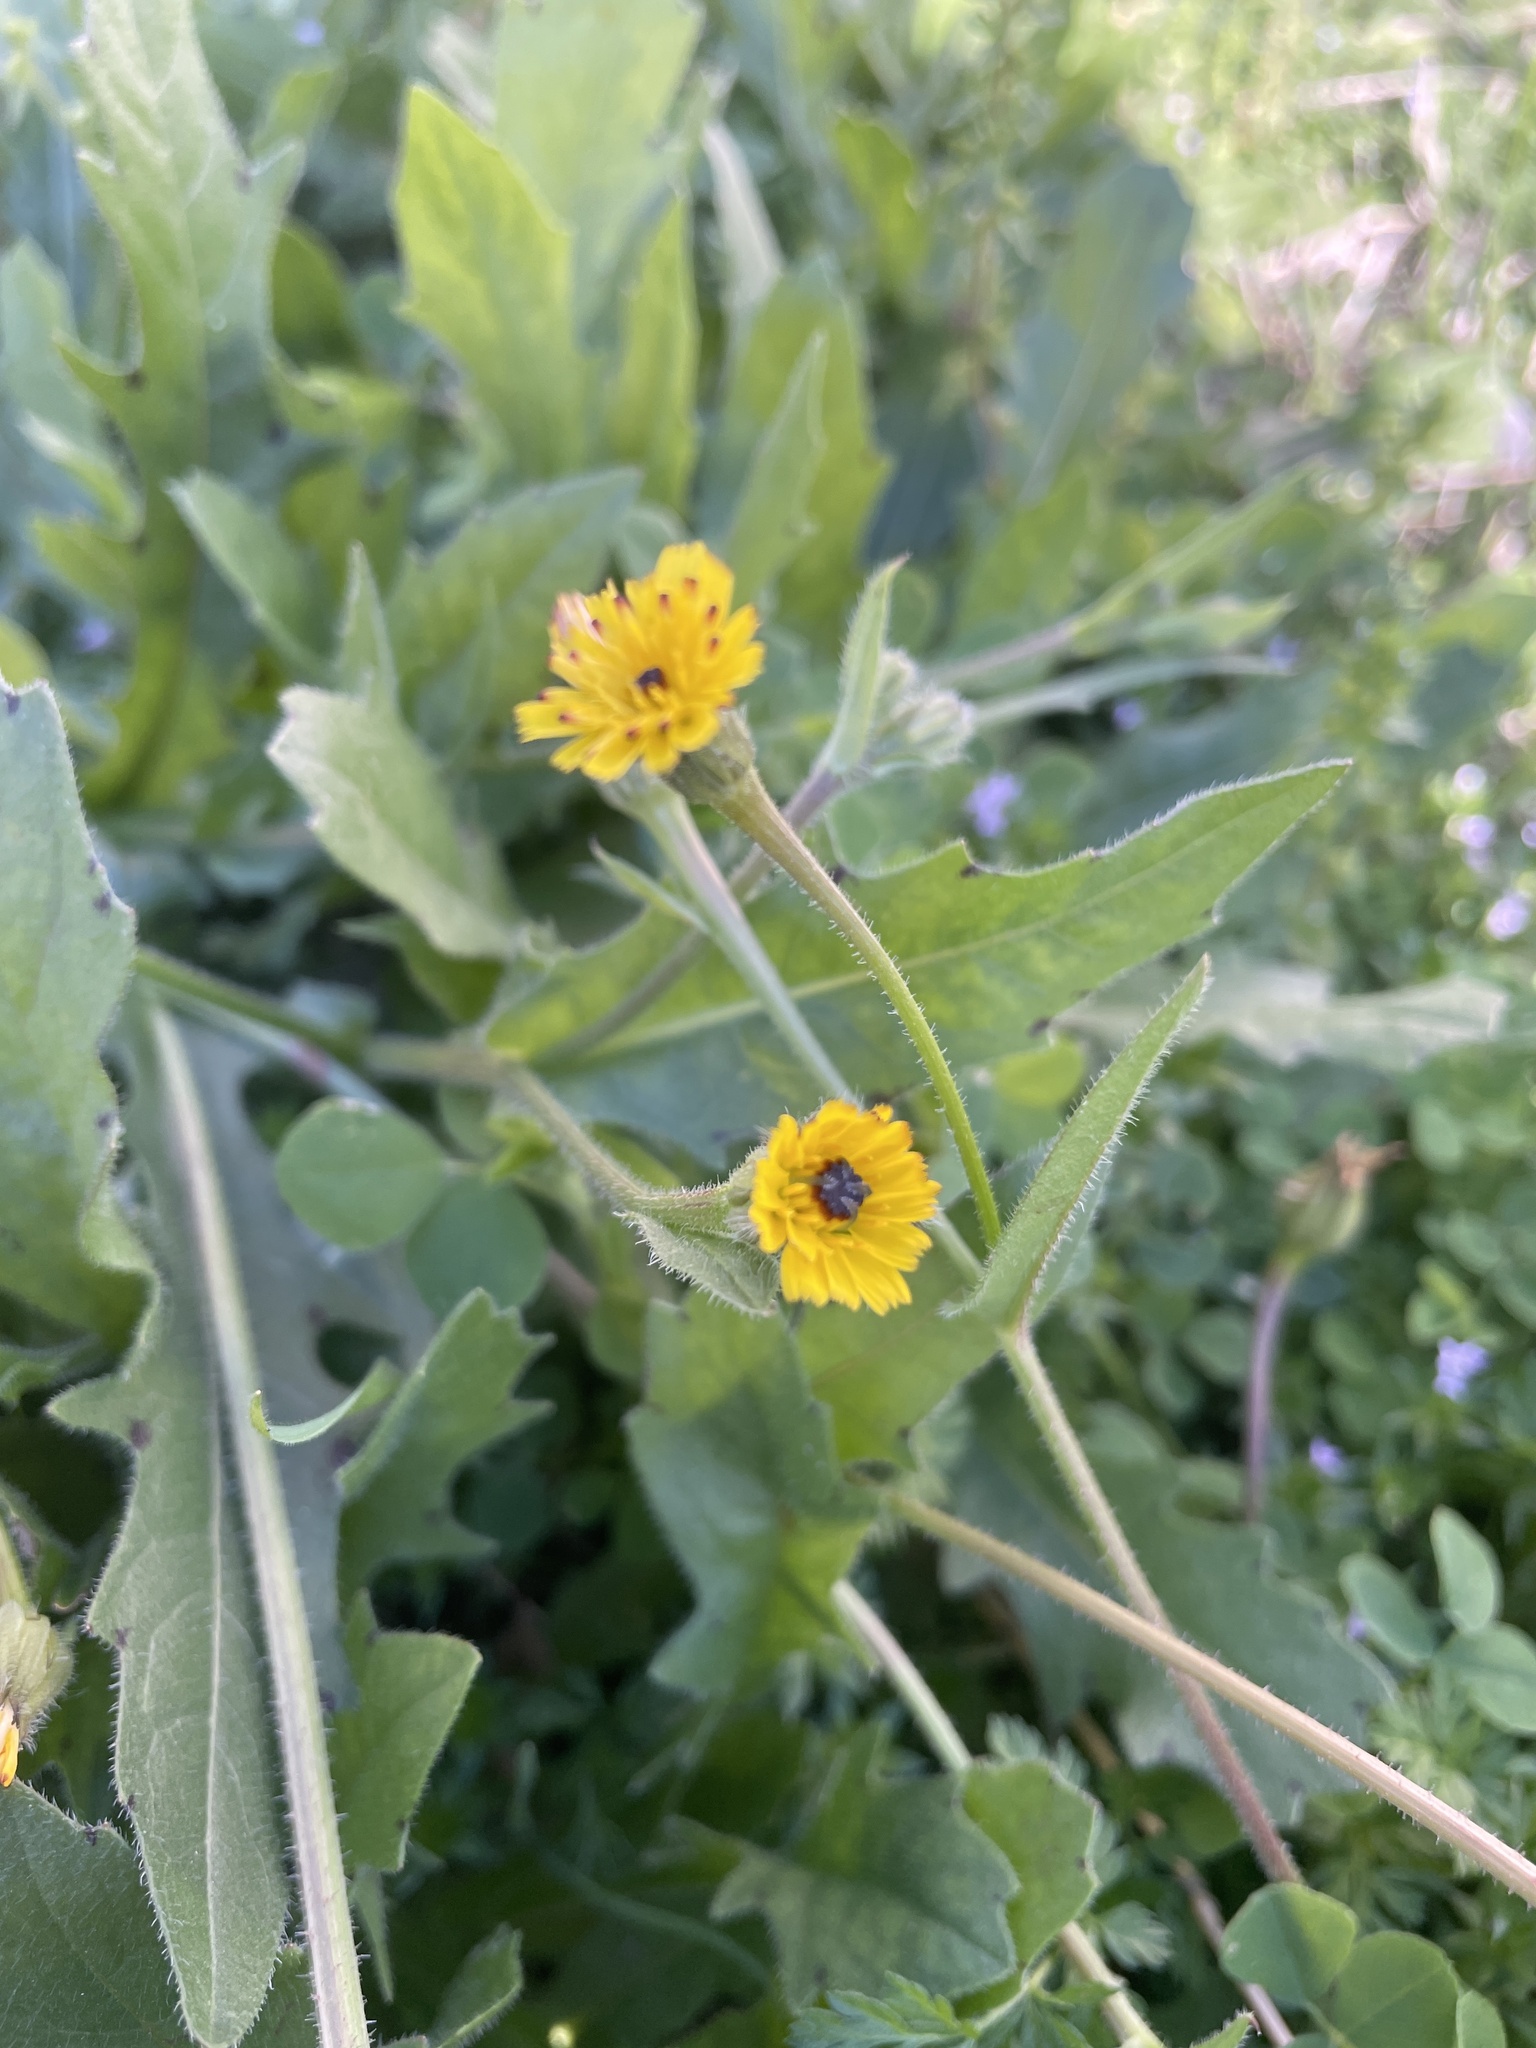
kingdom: Plantae
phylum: Tracheophyta
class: Magnoliopsida
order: Asterales
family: Asteraceae
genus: Hedypnois
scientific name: Hedypnois rhagadioloides
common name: Cretan weed
